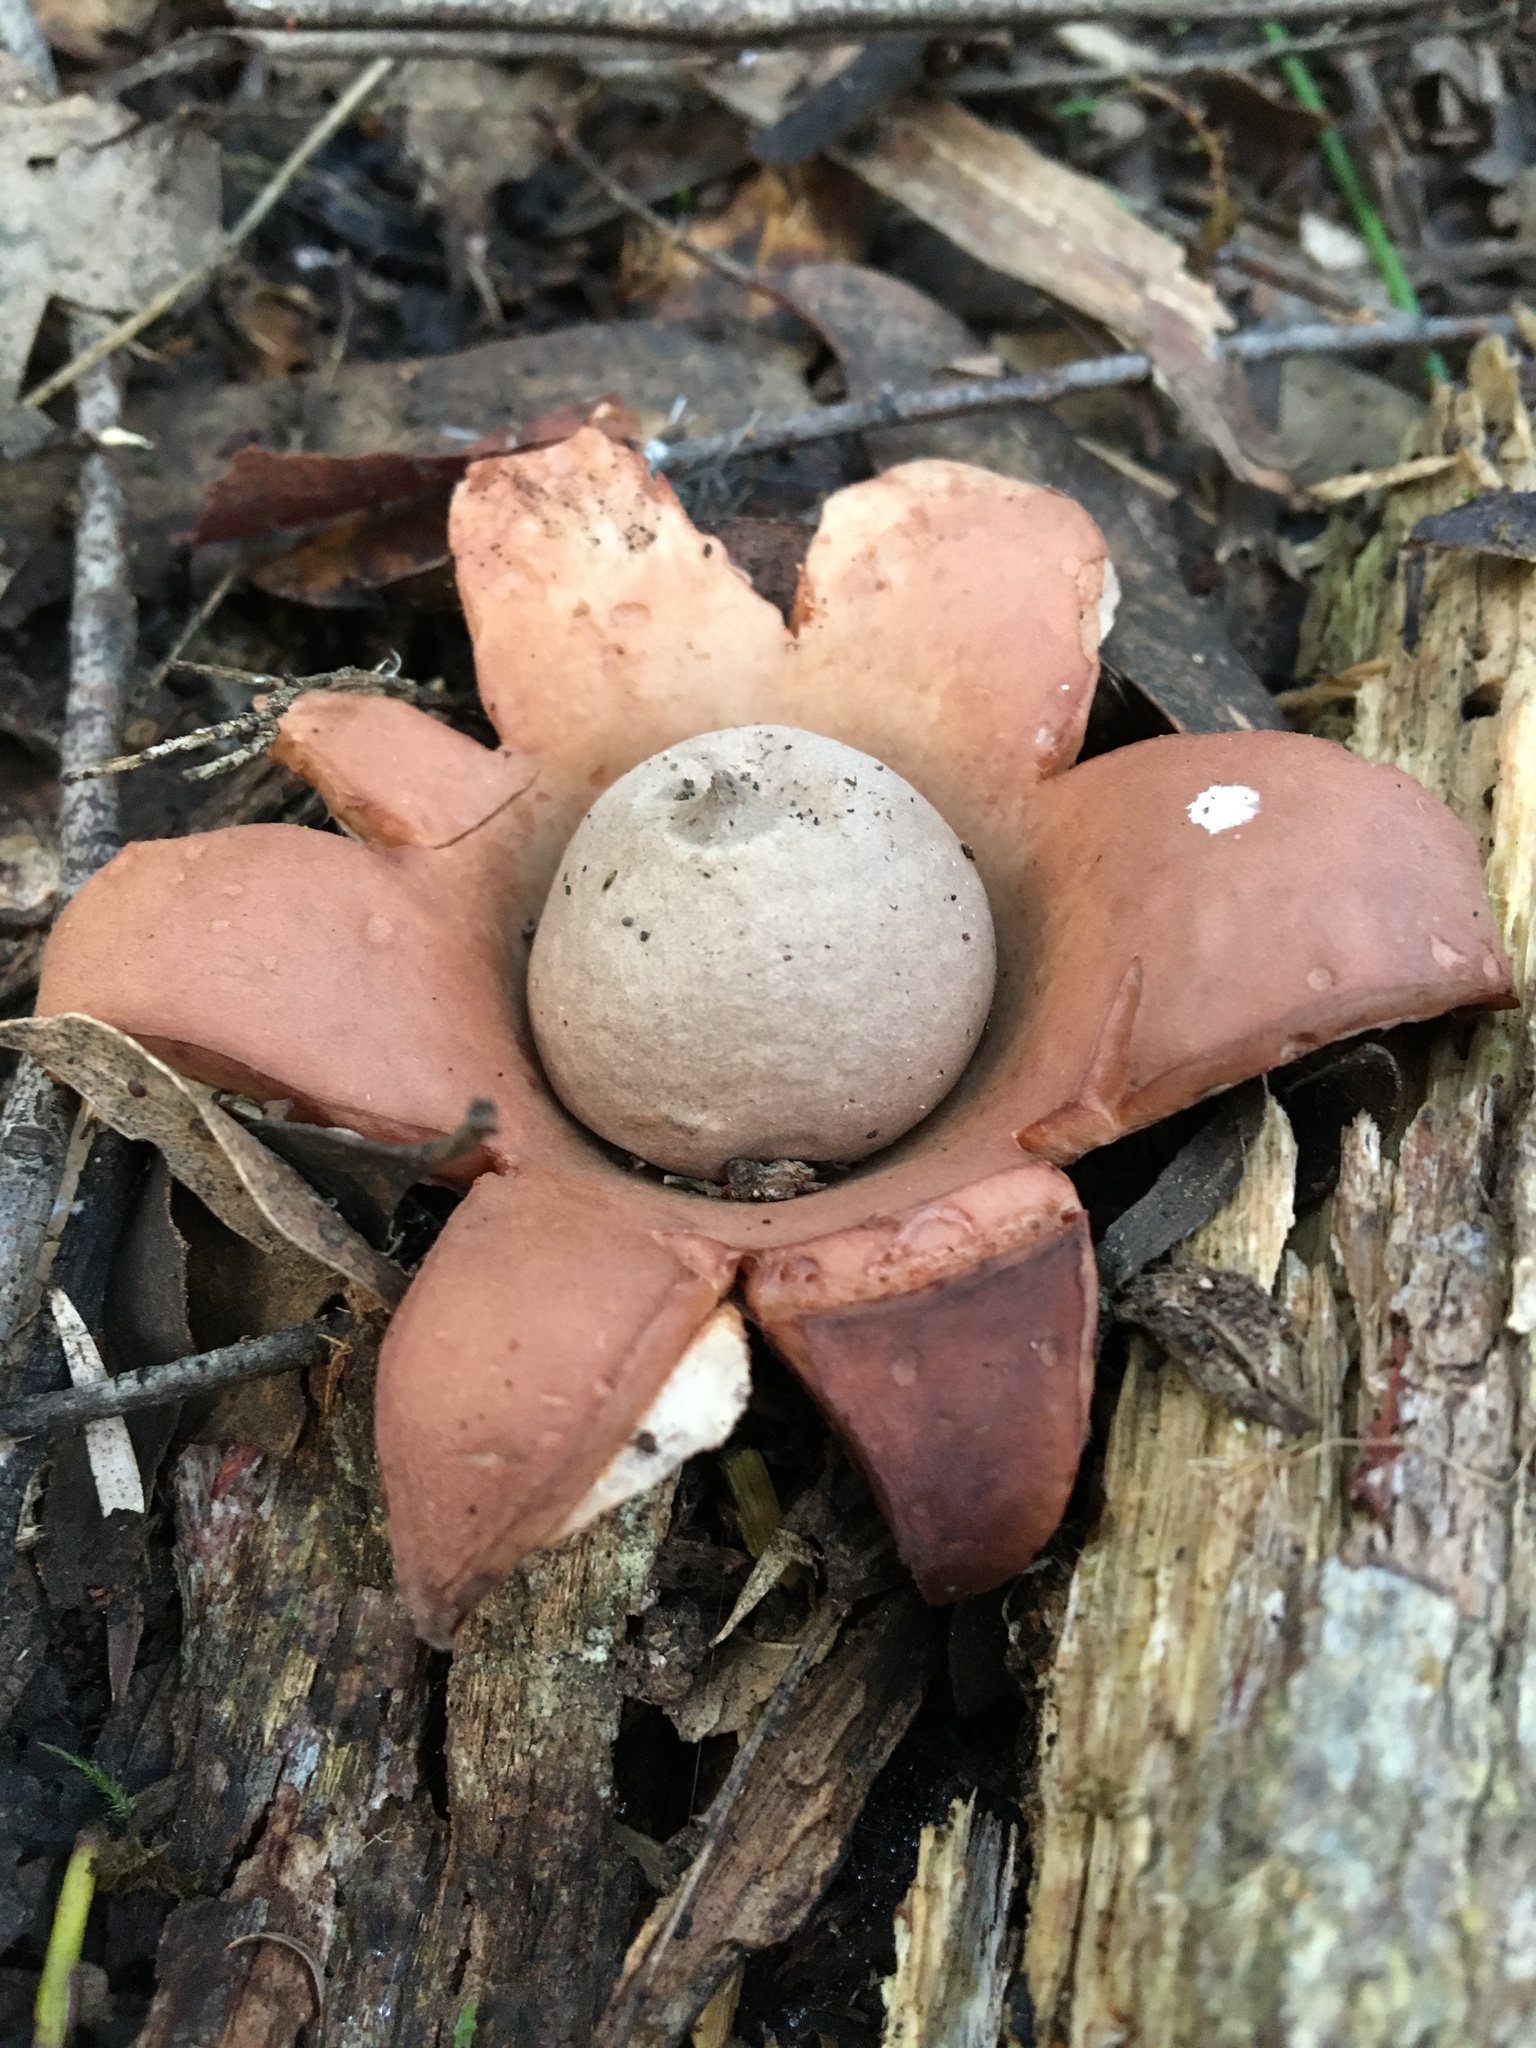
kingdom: Fungi
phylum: Basidiomycota
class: Agaricomycetes
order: Geastrales
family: Geastraceae
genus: Geastrum
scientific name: Geastrum triplex
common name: Collared earthstar
